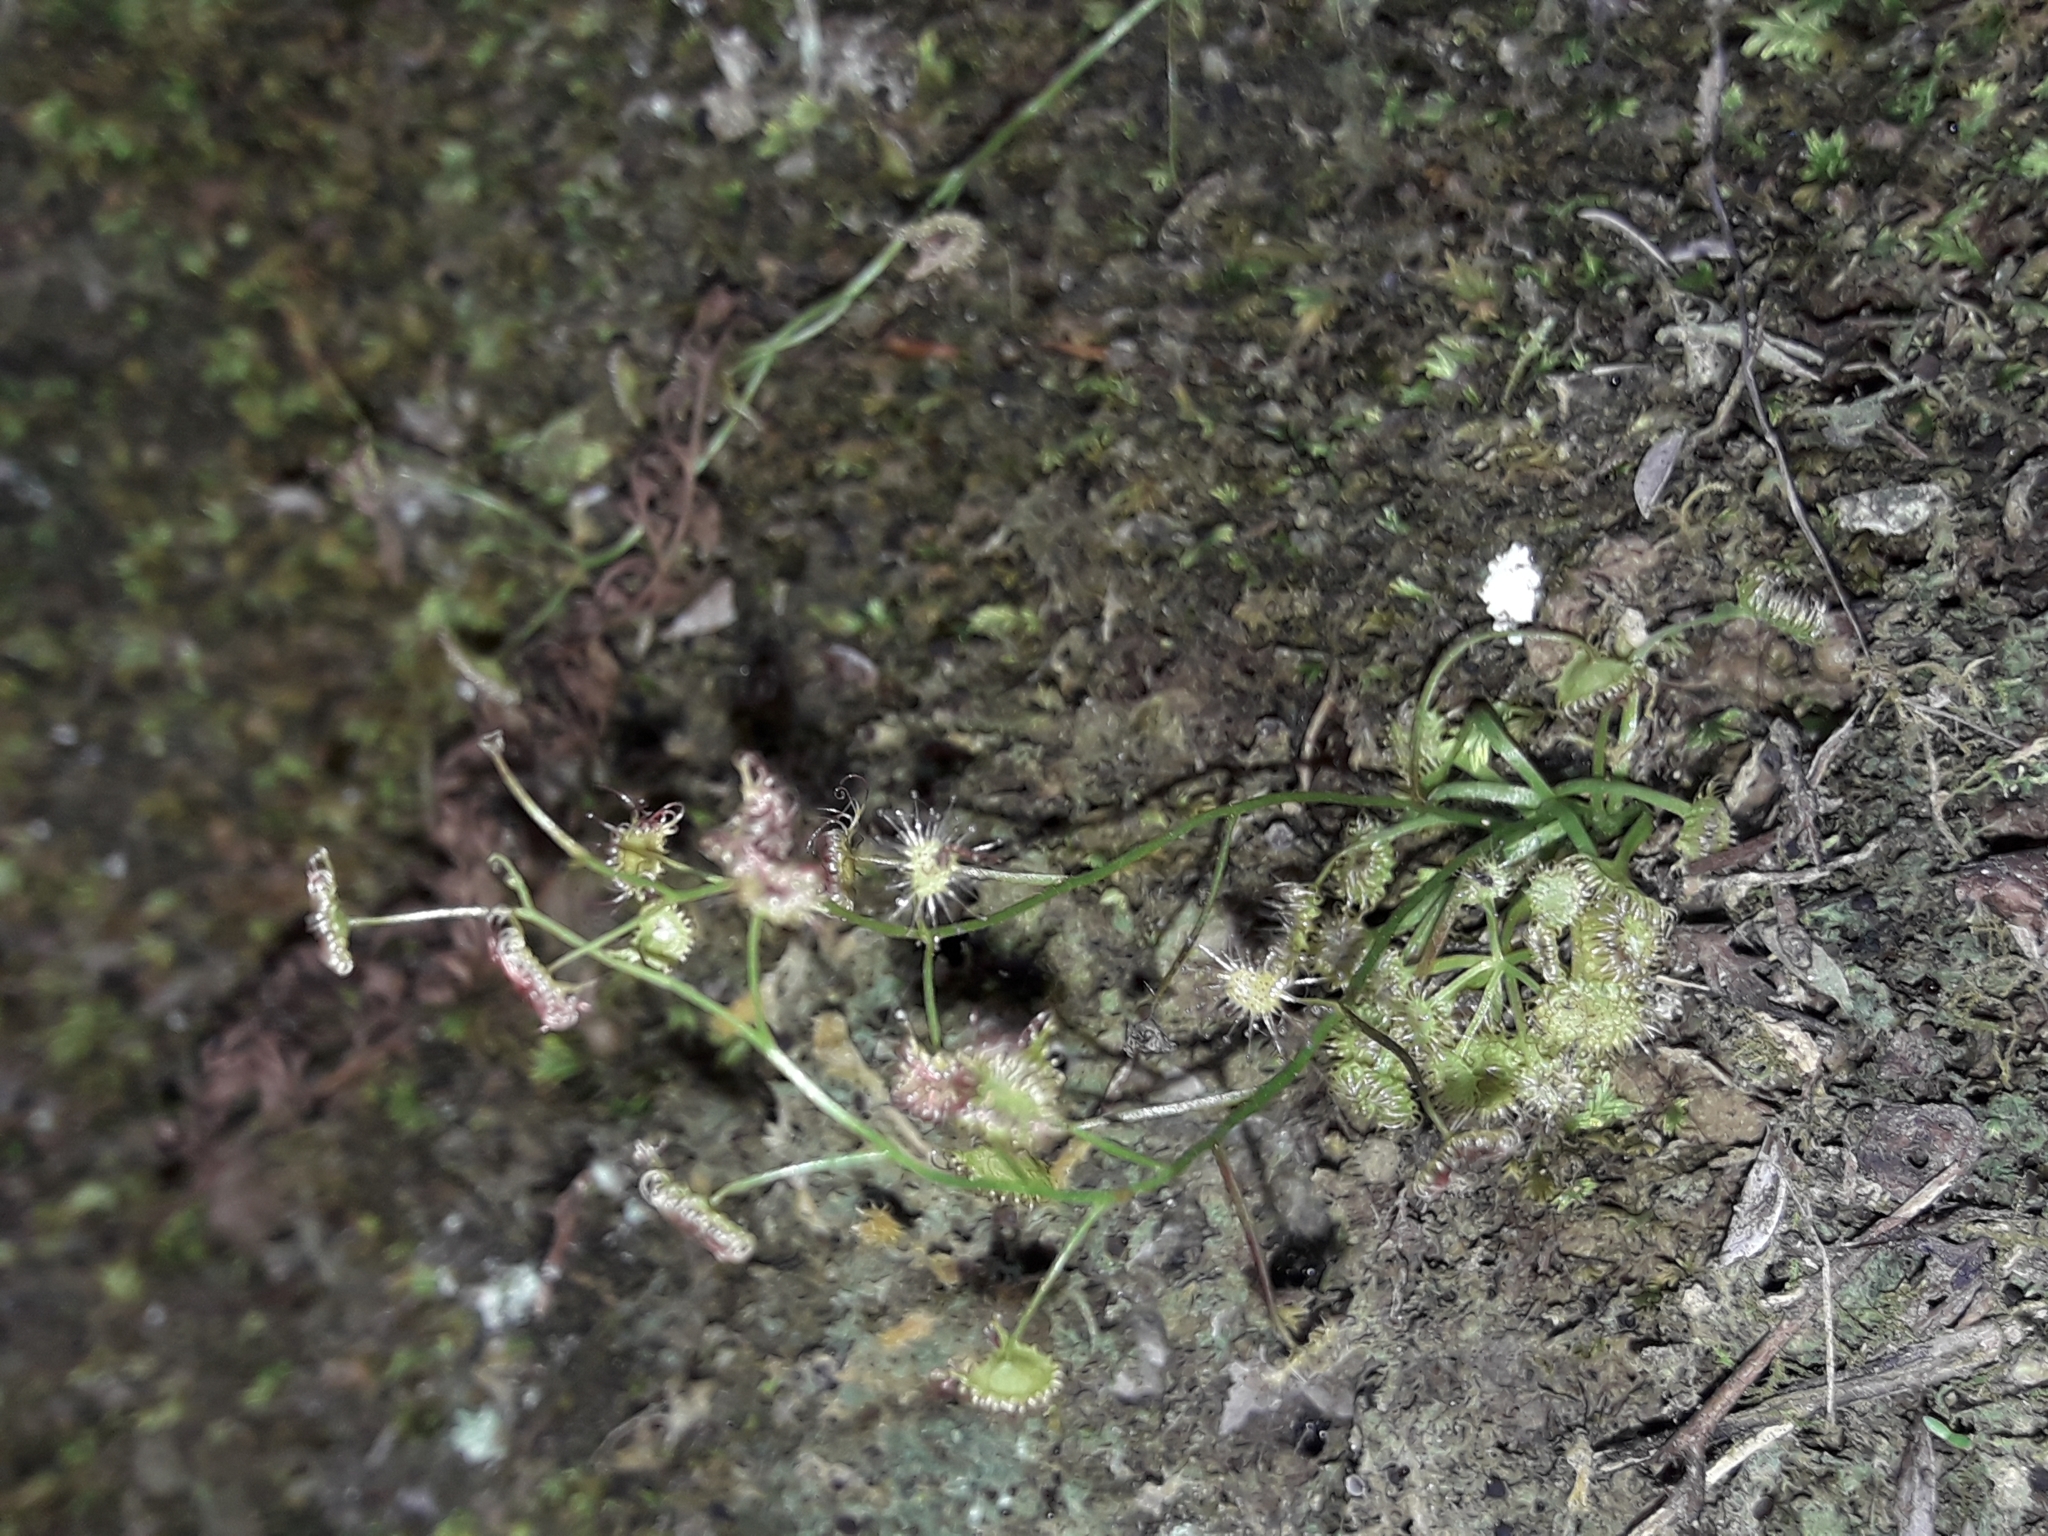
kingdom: Plantae
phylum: Tracheophyta
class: Magnoliopsida
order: Caryophyllales
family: Droseraceae
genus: Drosera
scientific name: Drosera peltata
